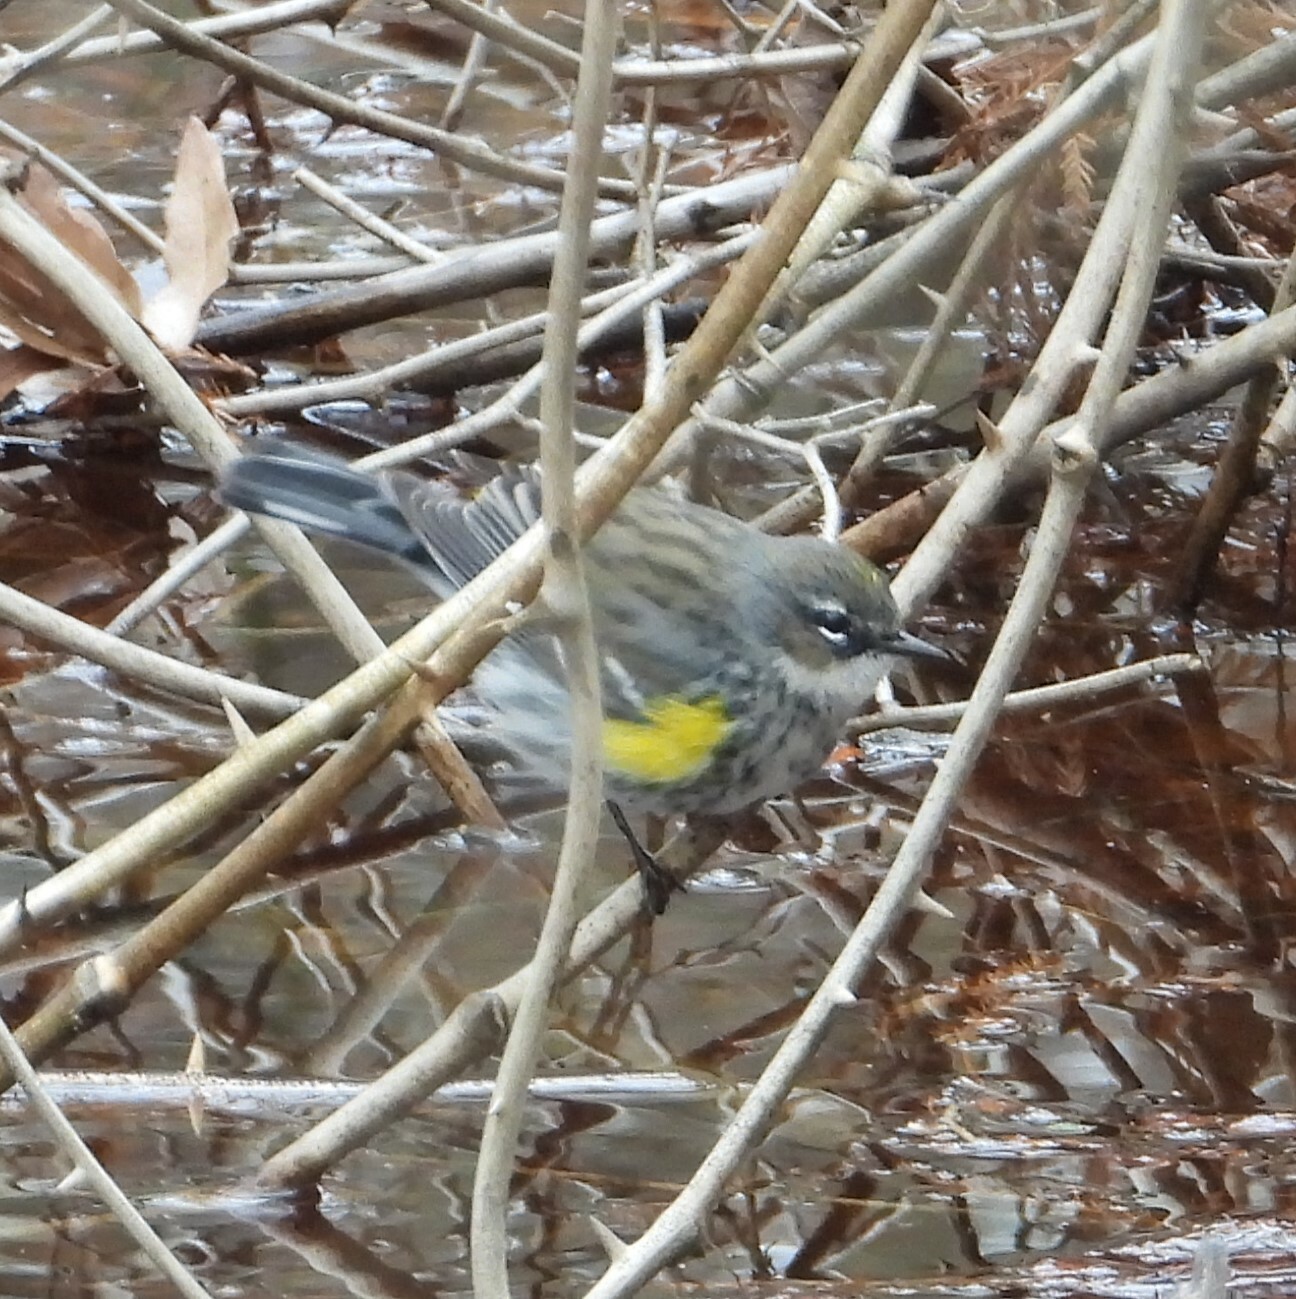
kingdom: Animalia
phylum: Chordata
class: Aves
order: Passeriformes
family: Parulidae
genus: Setophaga
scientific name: Setophaga coronata
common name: Myrtle warbler
